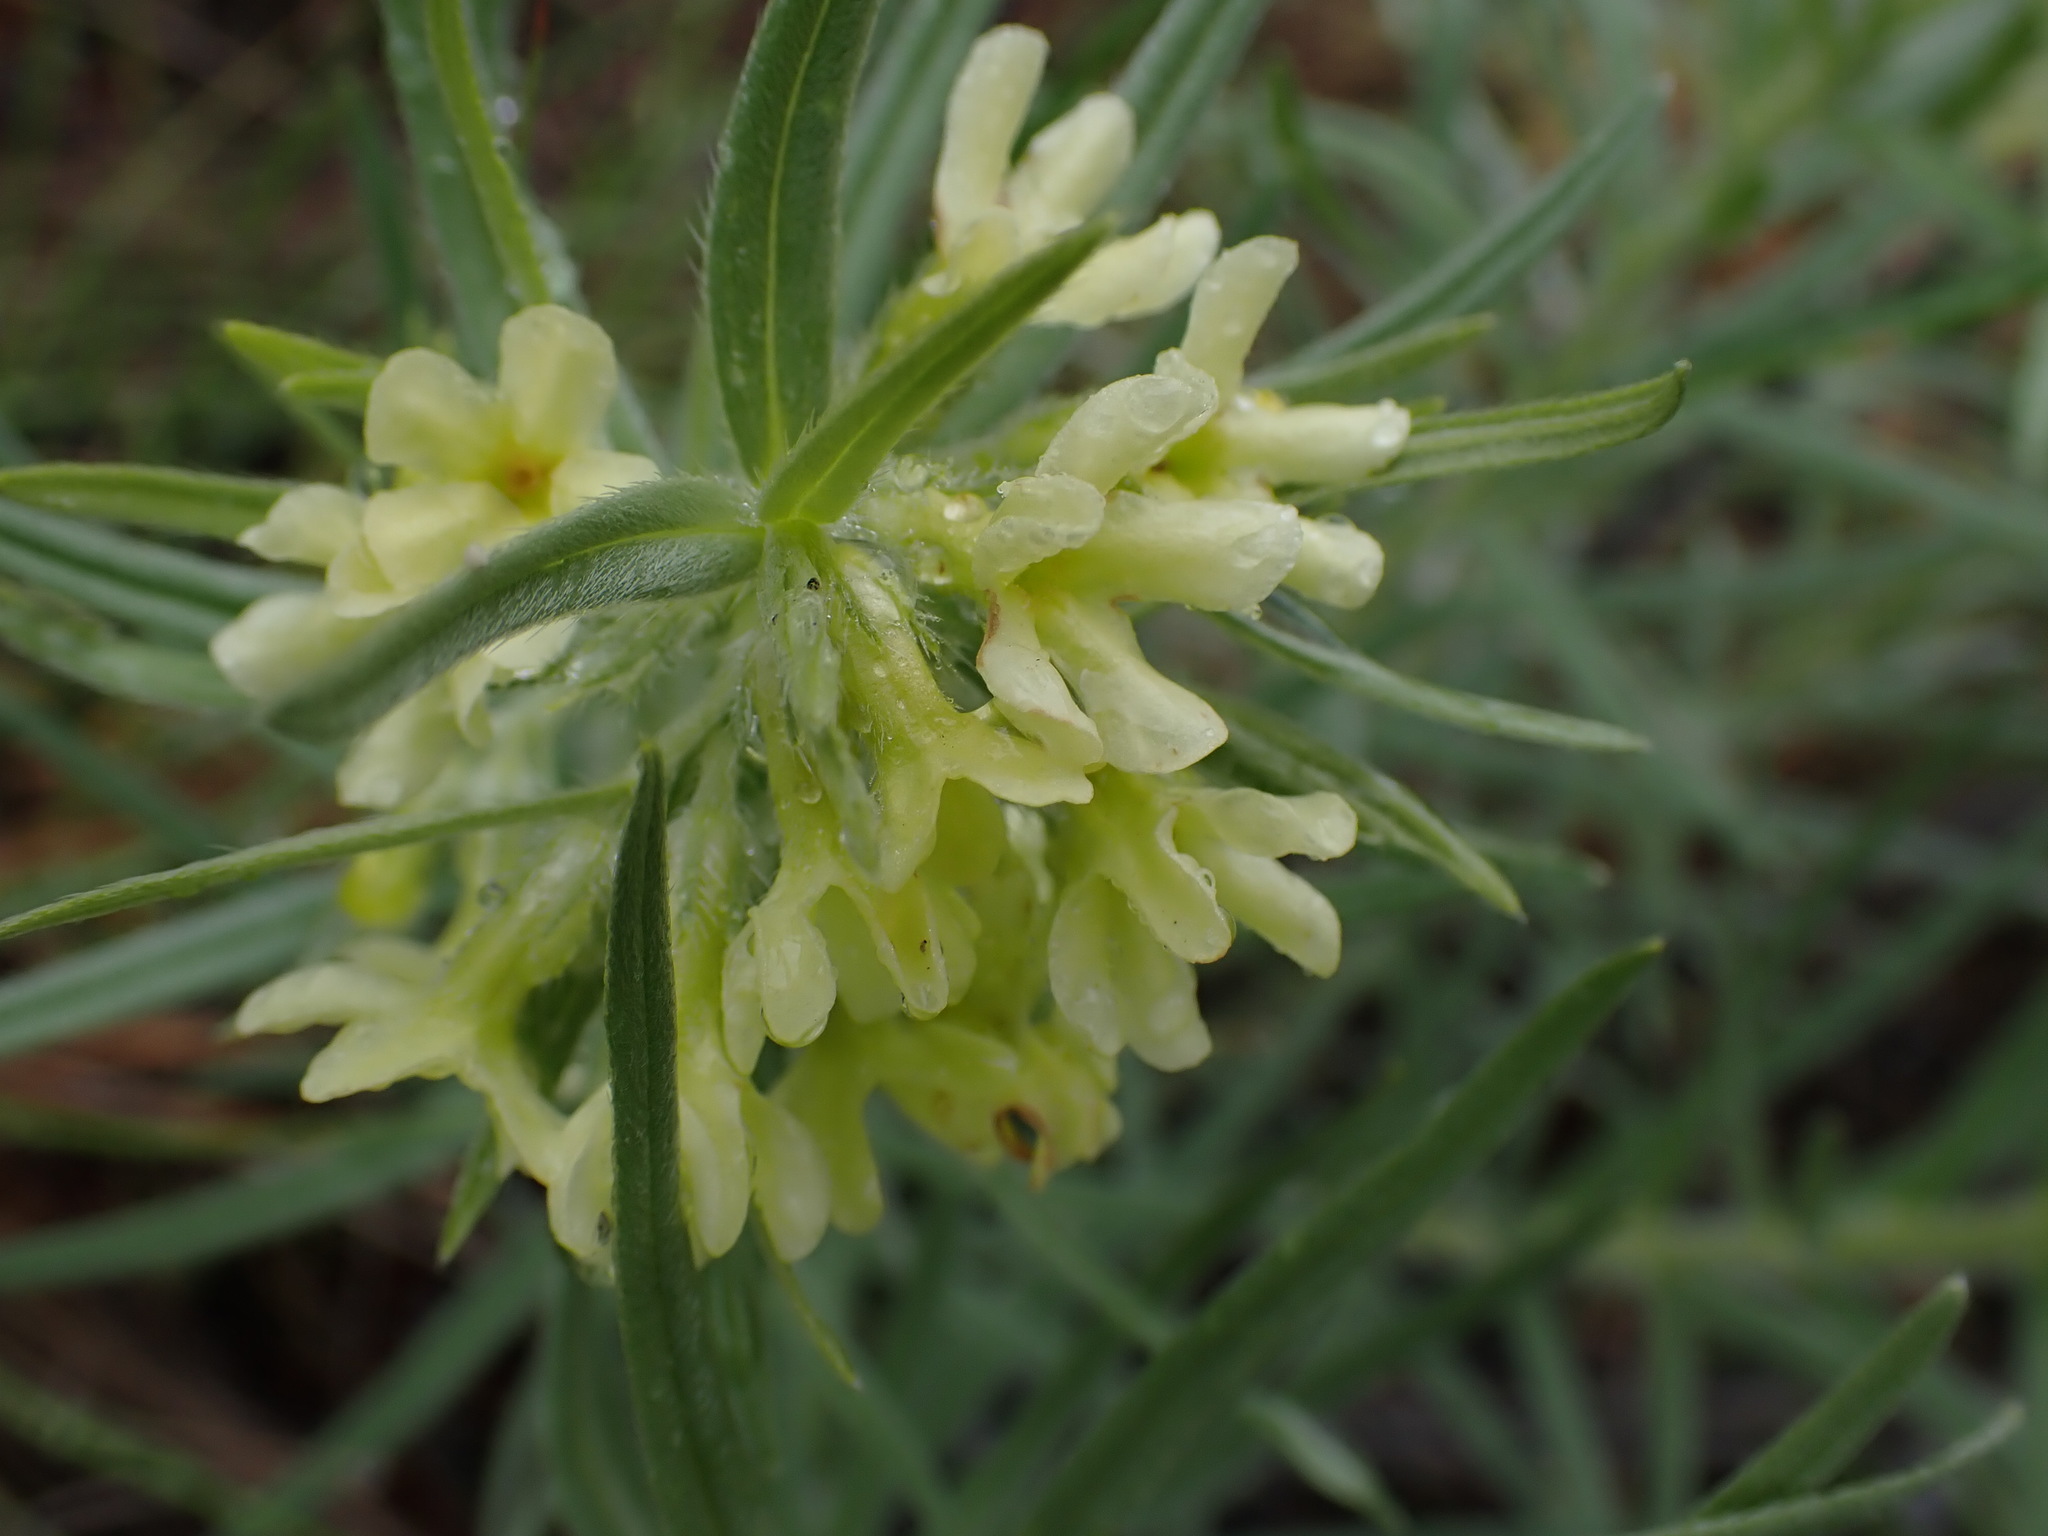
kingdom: Plantae
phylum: Tracheophyta
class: Magnoliopsida
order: Boraginales
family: Boraginaceae
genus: Lithospermum
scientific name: Lithospermum ruderale
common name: Western gromwell
